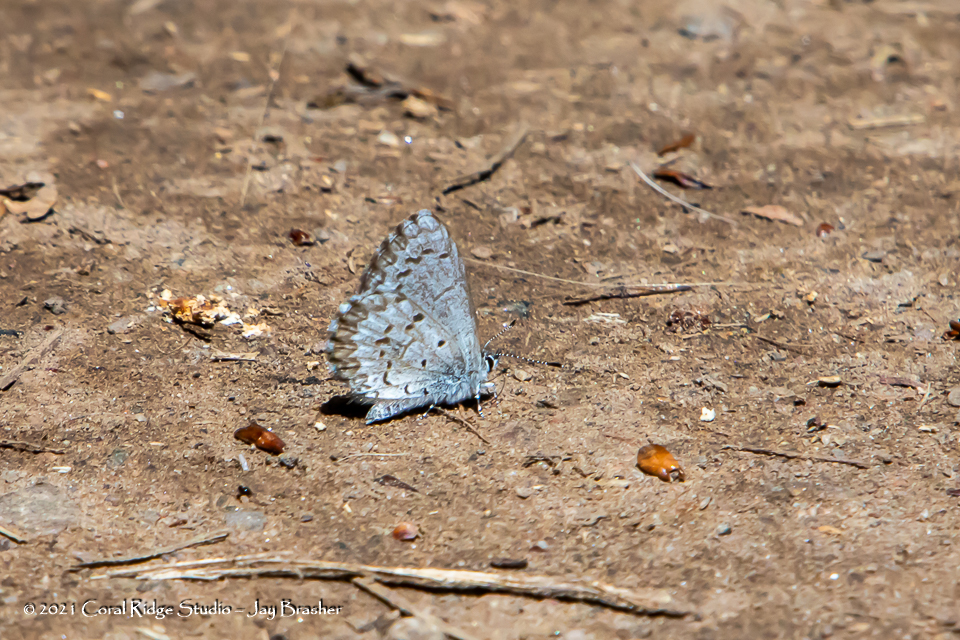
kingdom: Animalia
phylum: Arthropoda
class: Insecta
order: Lepidoptera
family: Lycaenidae
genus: Celastrina
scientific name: Celastrina lucia
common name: Lucia azure
